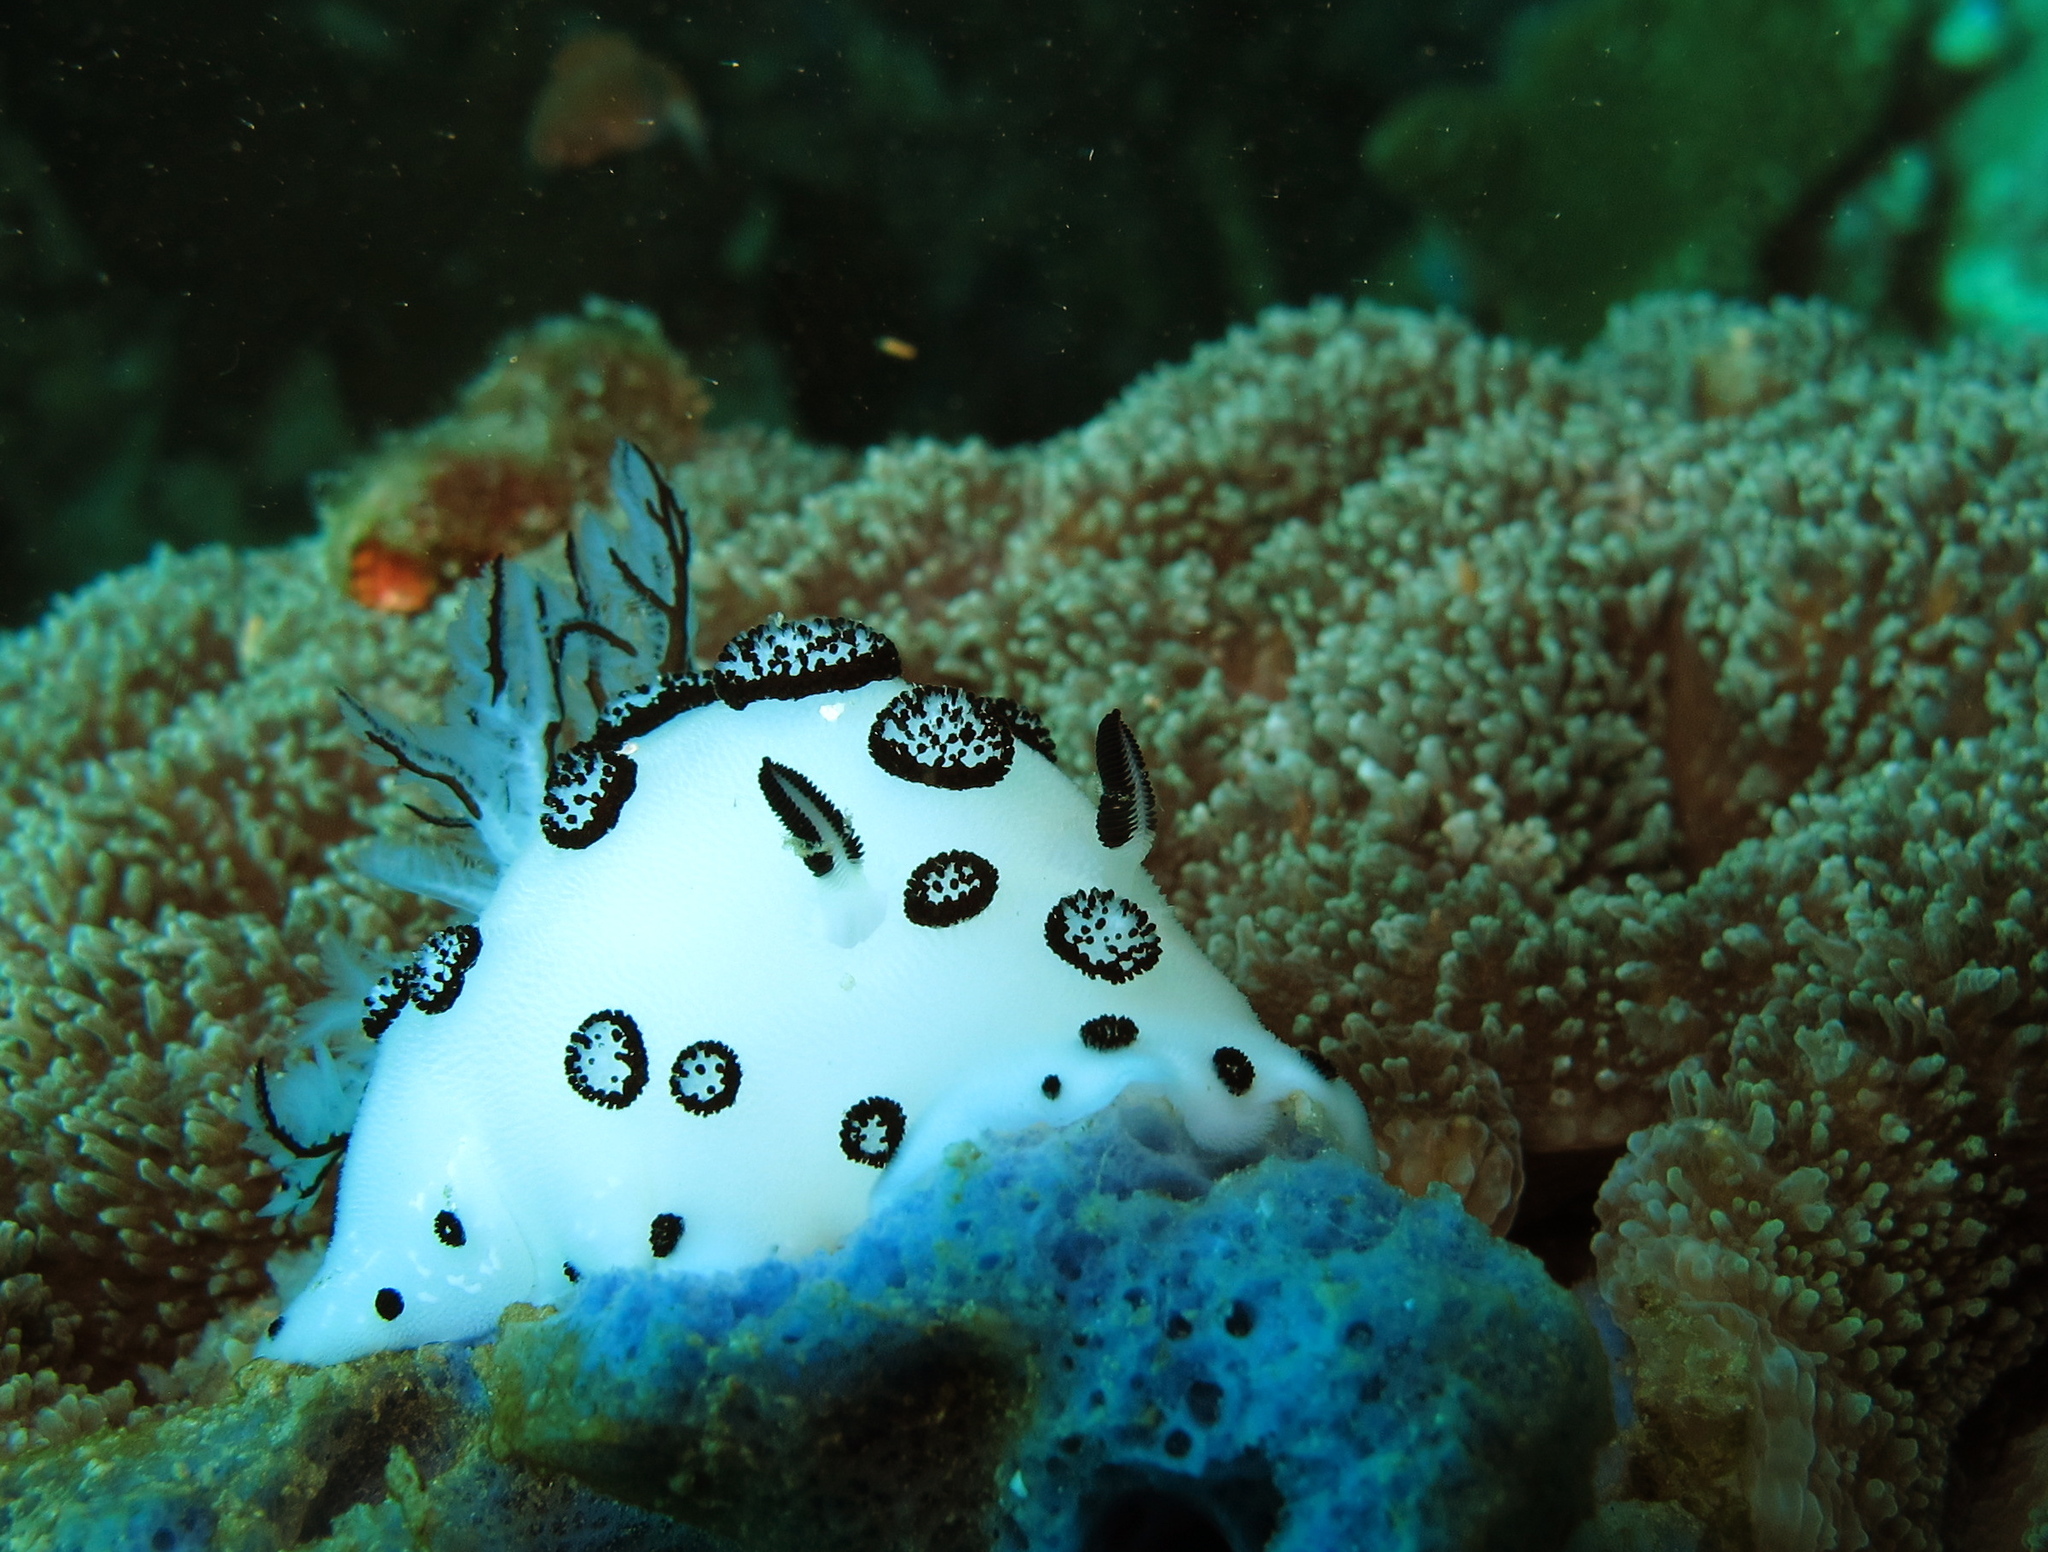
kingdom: Animalia
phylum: Mollusca
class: Gastropoda
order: Nudibranchia
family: Discodorididae
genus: Jorunna
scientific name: Jorunna funebris
